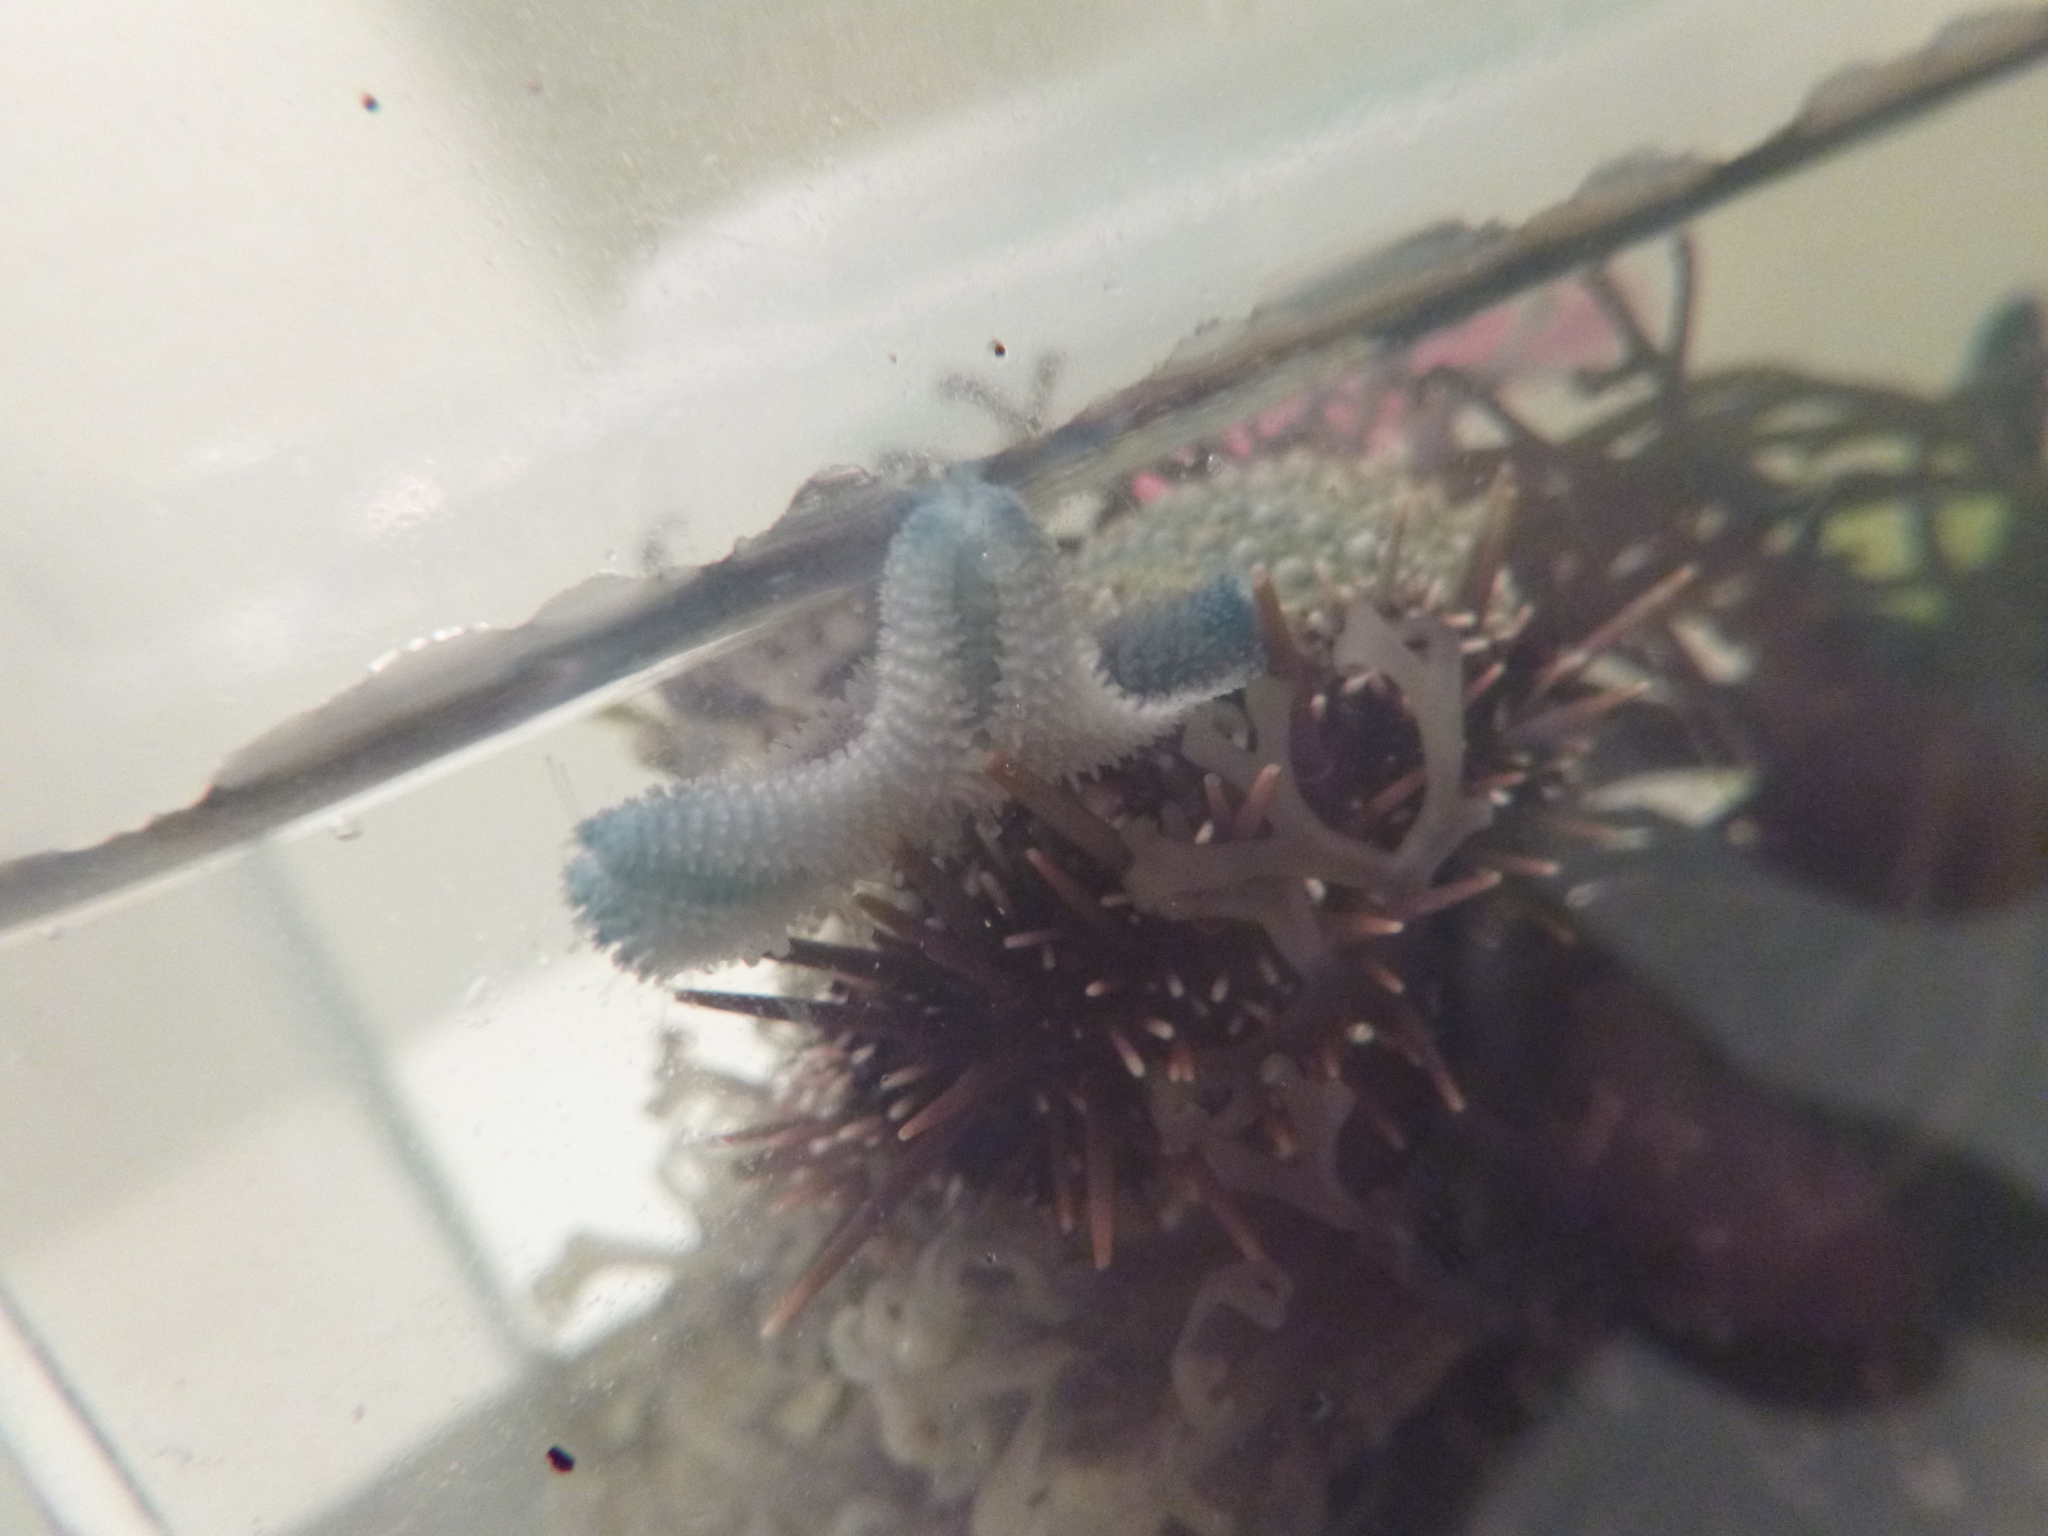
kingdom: Animalia
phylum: Echinodermata
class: Echinoidea
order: Camarodonta
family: Echinometridae
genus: Evechinus
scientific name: Evechinus chloroticus
